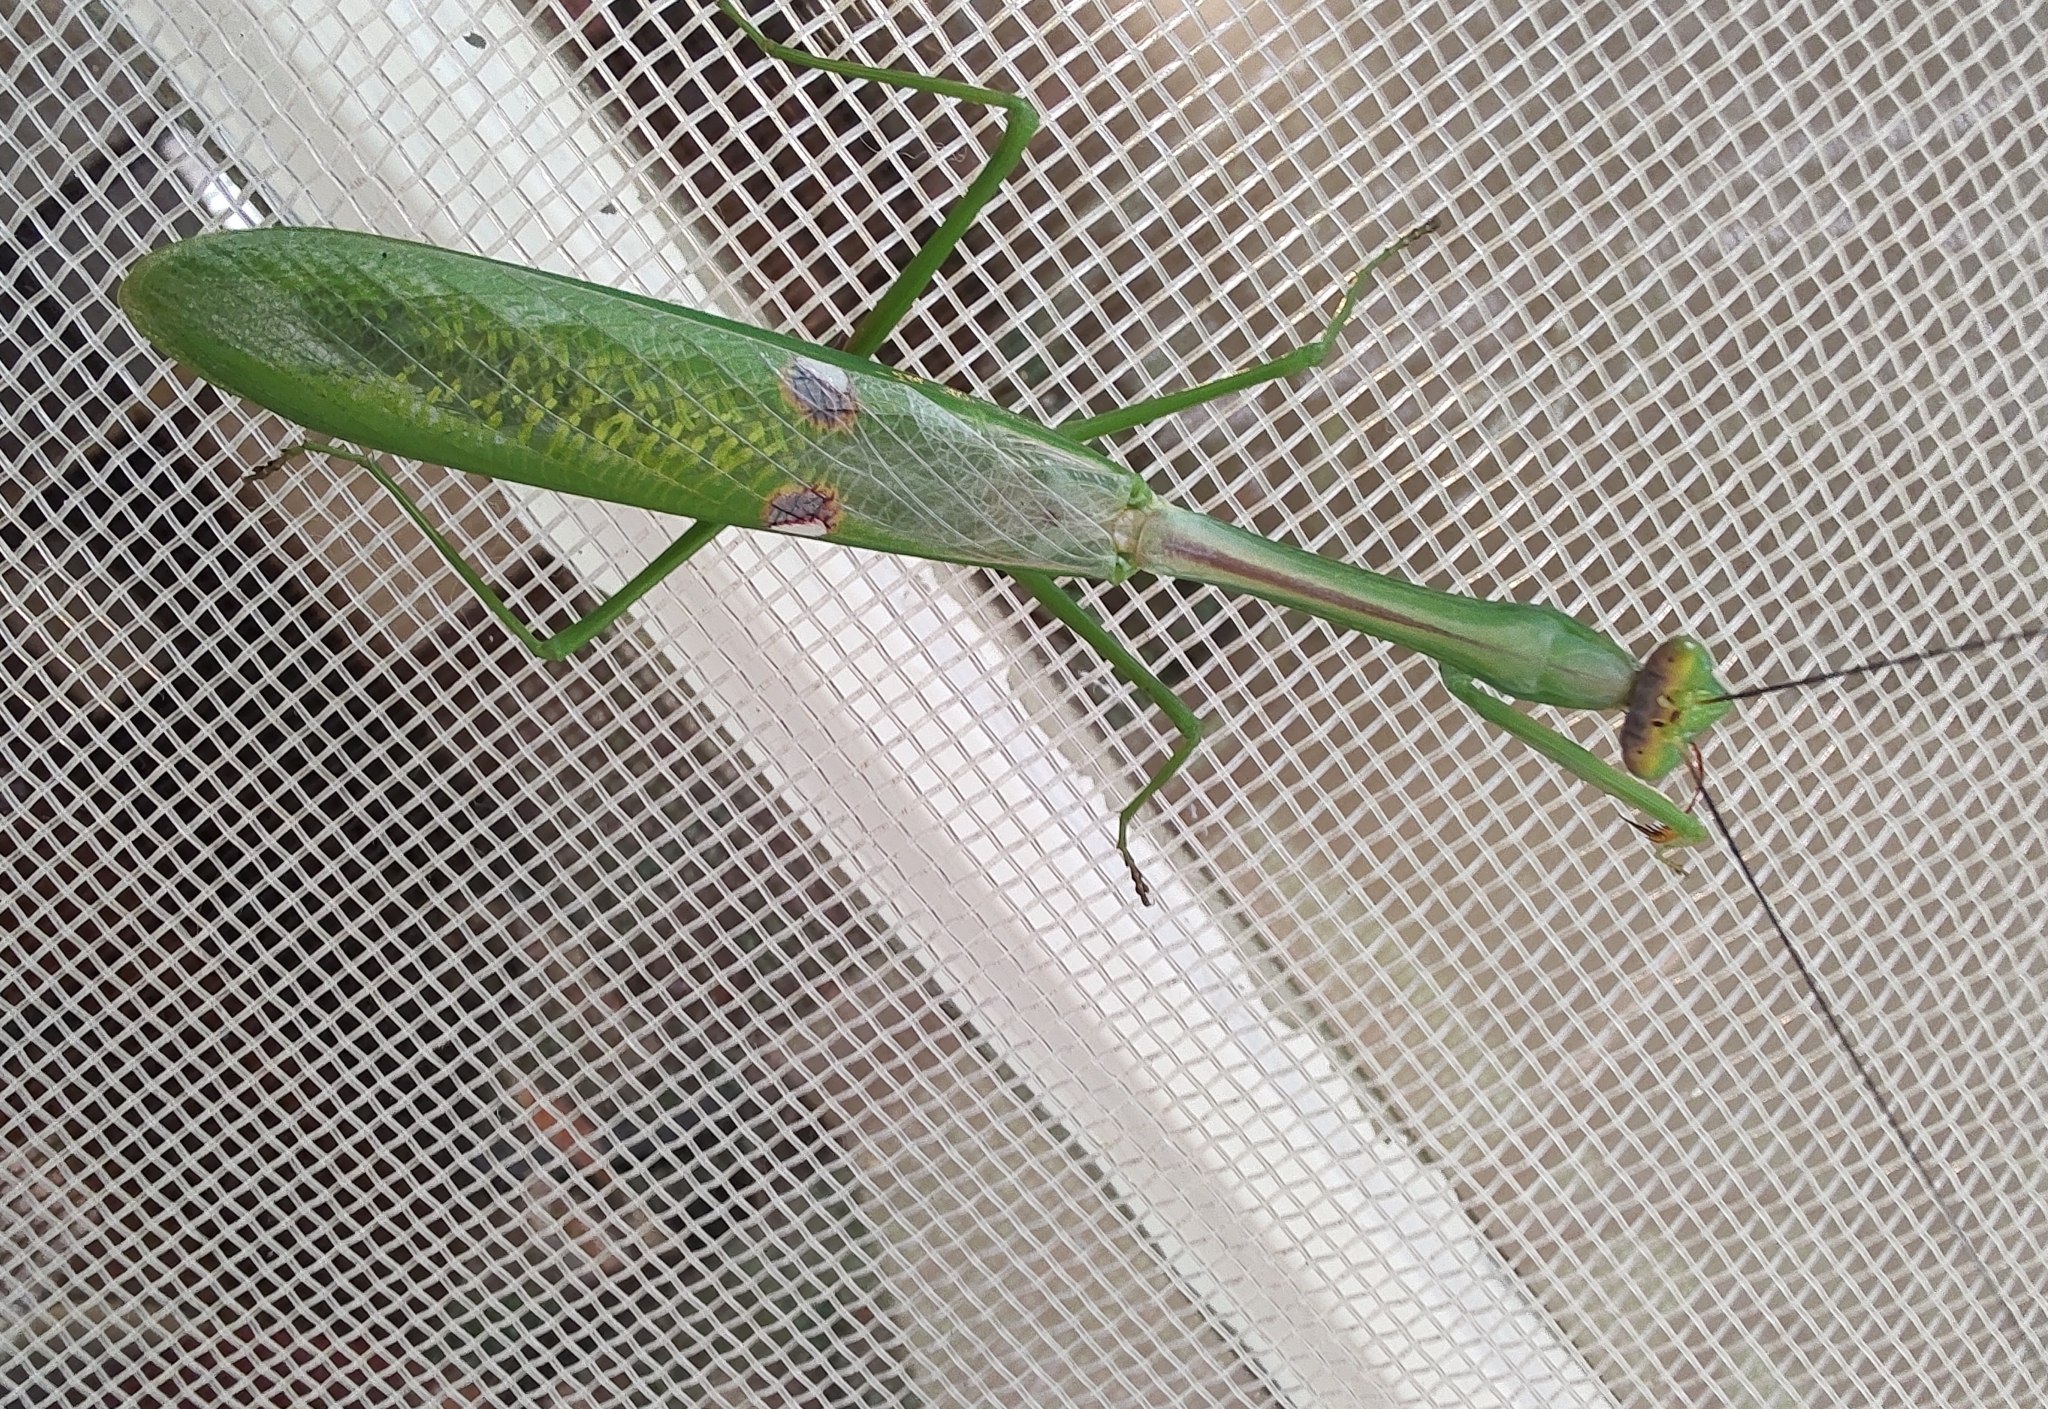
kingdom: Animalia
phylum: Arthropoda
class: Insecta
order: Mantodea
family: Mantidae
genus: Stagmatoptera
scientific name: Stagmatoptera praecaria
